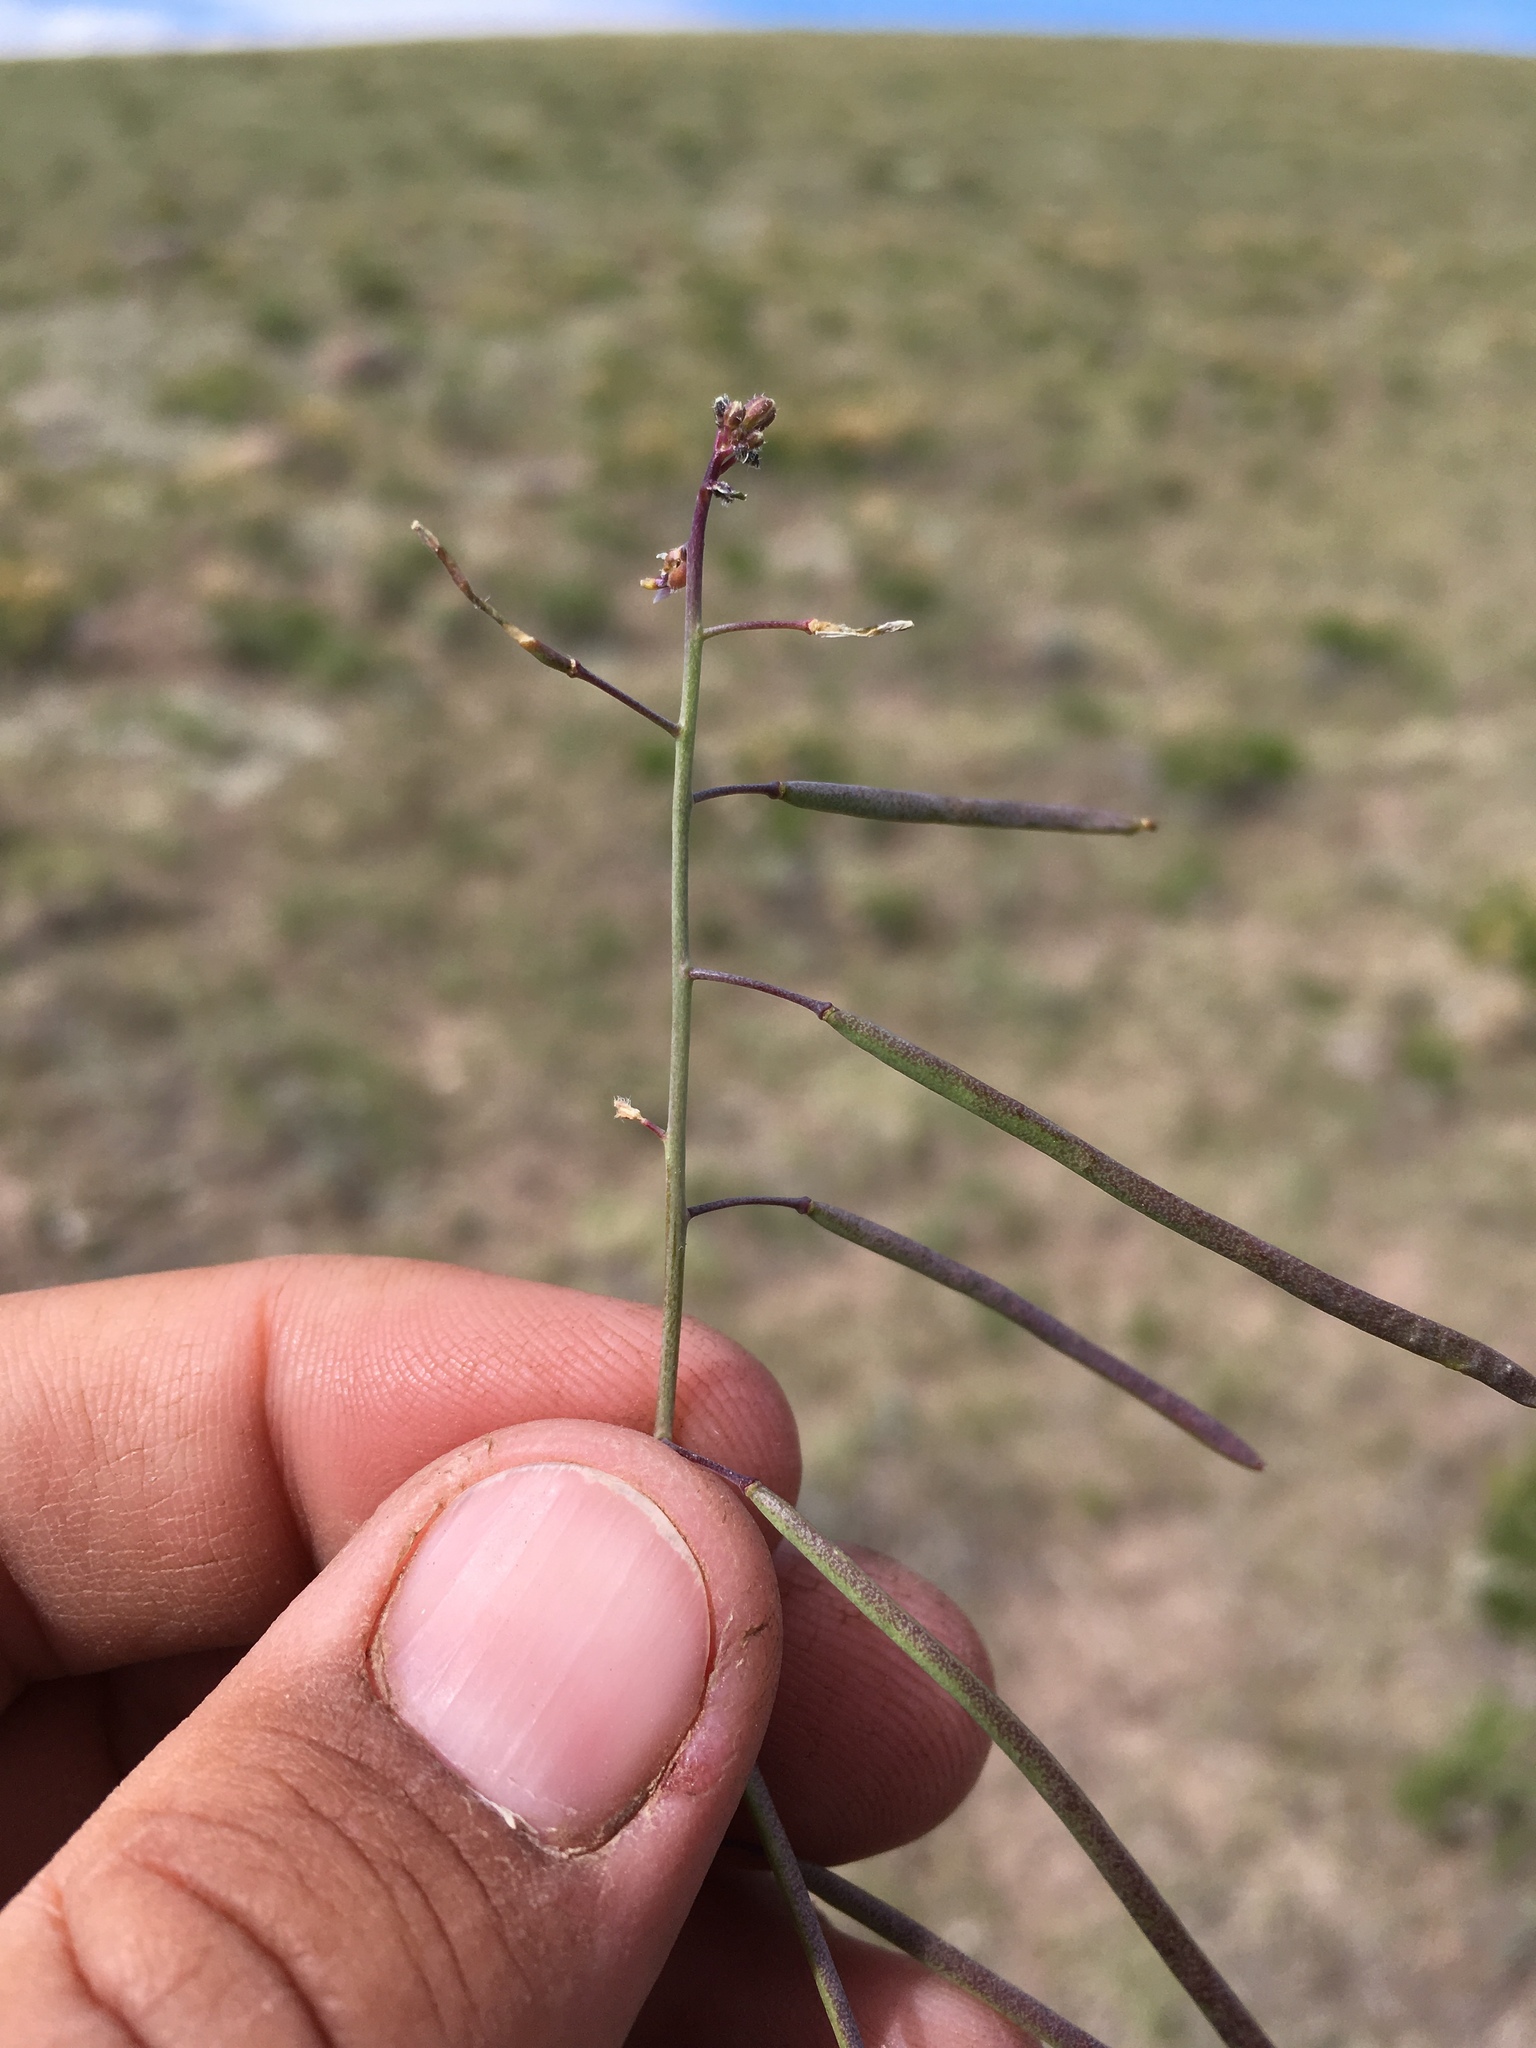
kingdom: Plantae
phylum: Tracheophyta
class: Magnoliopsida
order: Brassicales
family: Brassicaceae
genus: Boechera
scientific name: Boechera perennans
